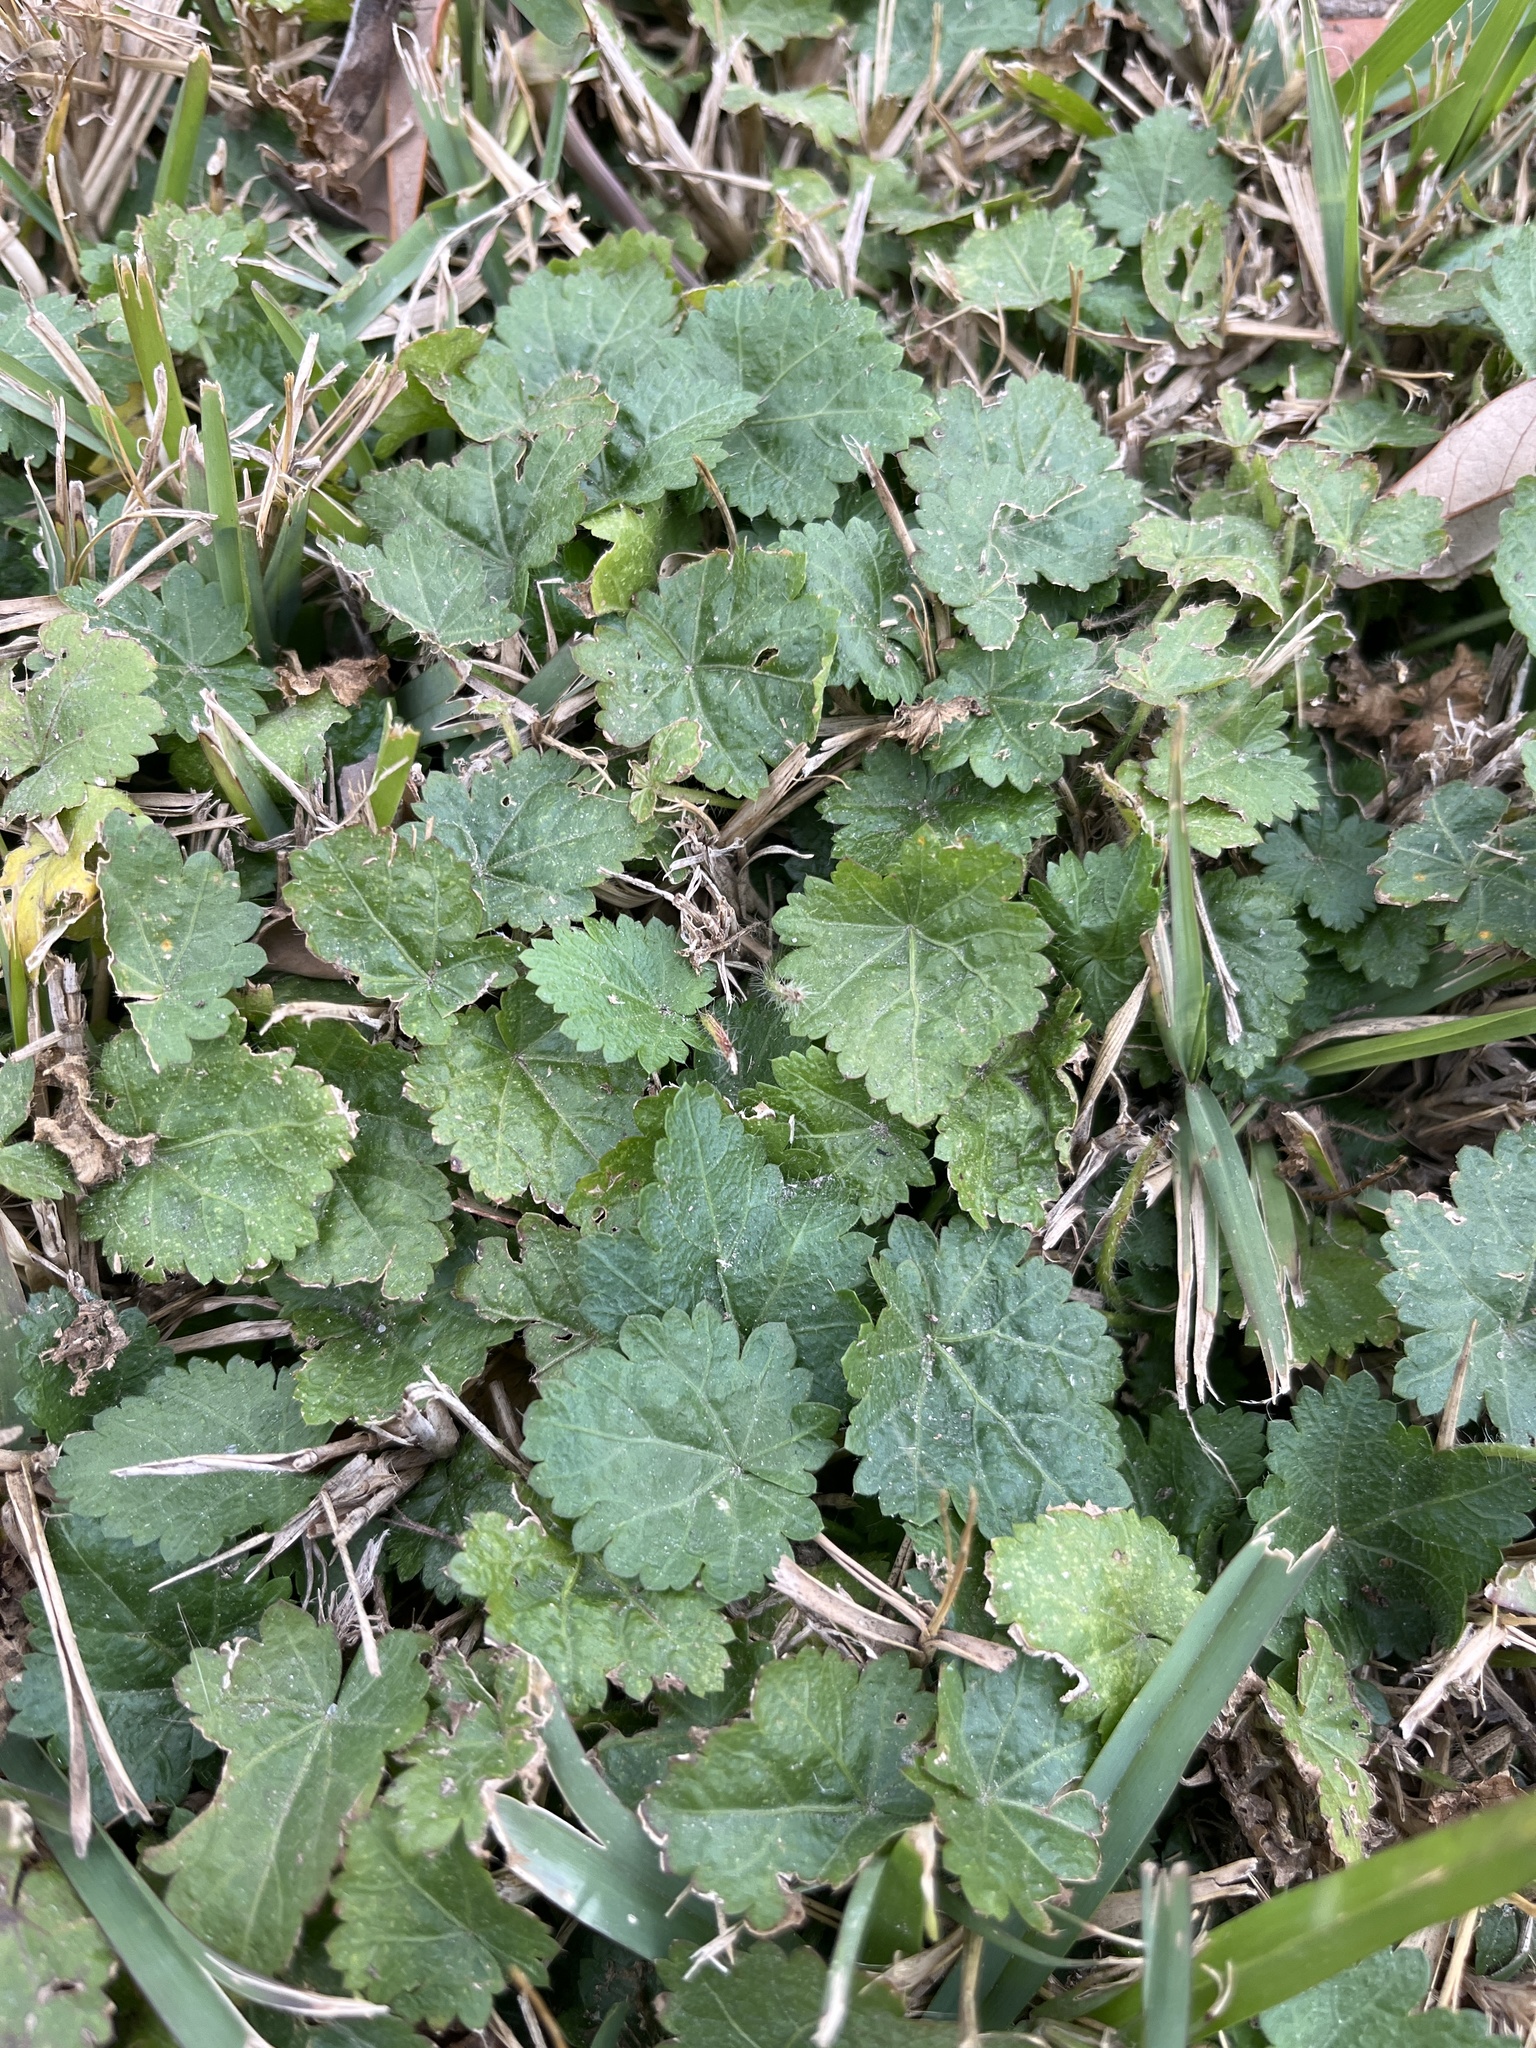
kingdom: Plantae
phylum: Tracheophyta
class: Magnoliopsida
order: Malvales
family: Malvaceae
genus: Modiola
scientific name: Modiola caroliniana
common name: Carolina bristlemallow
